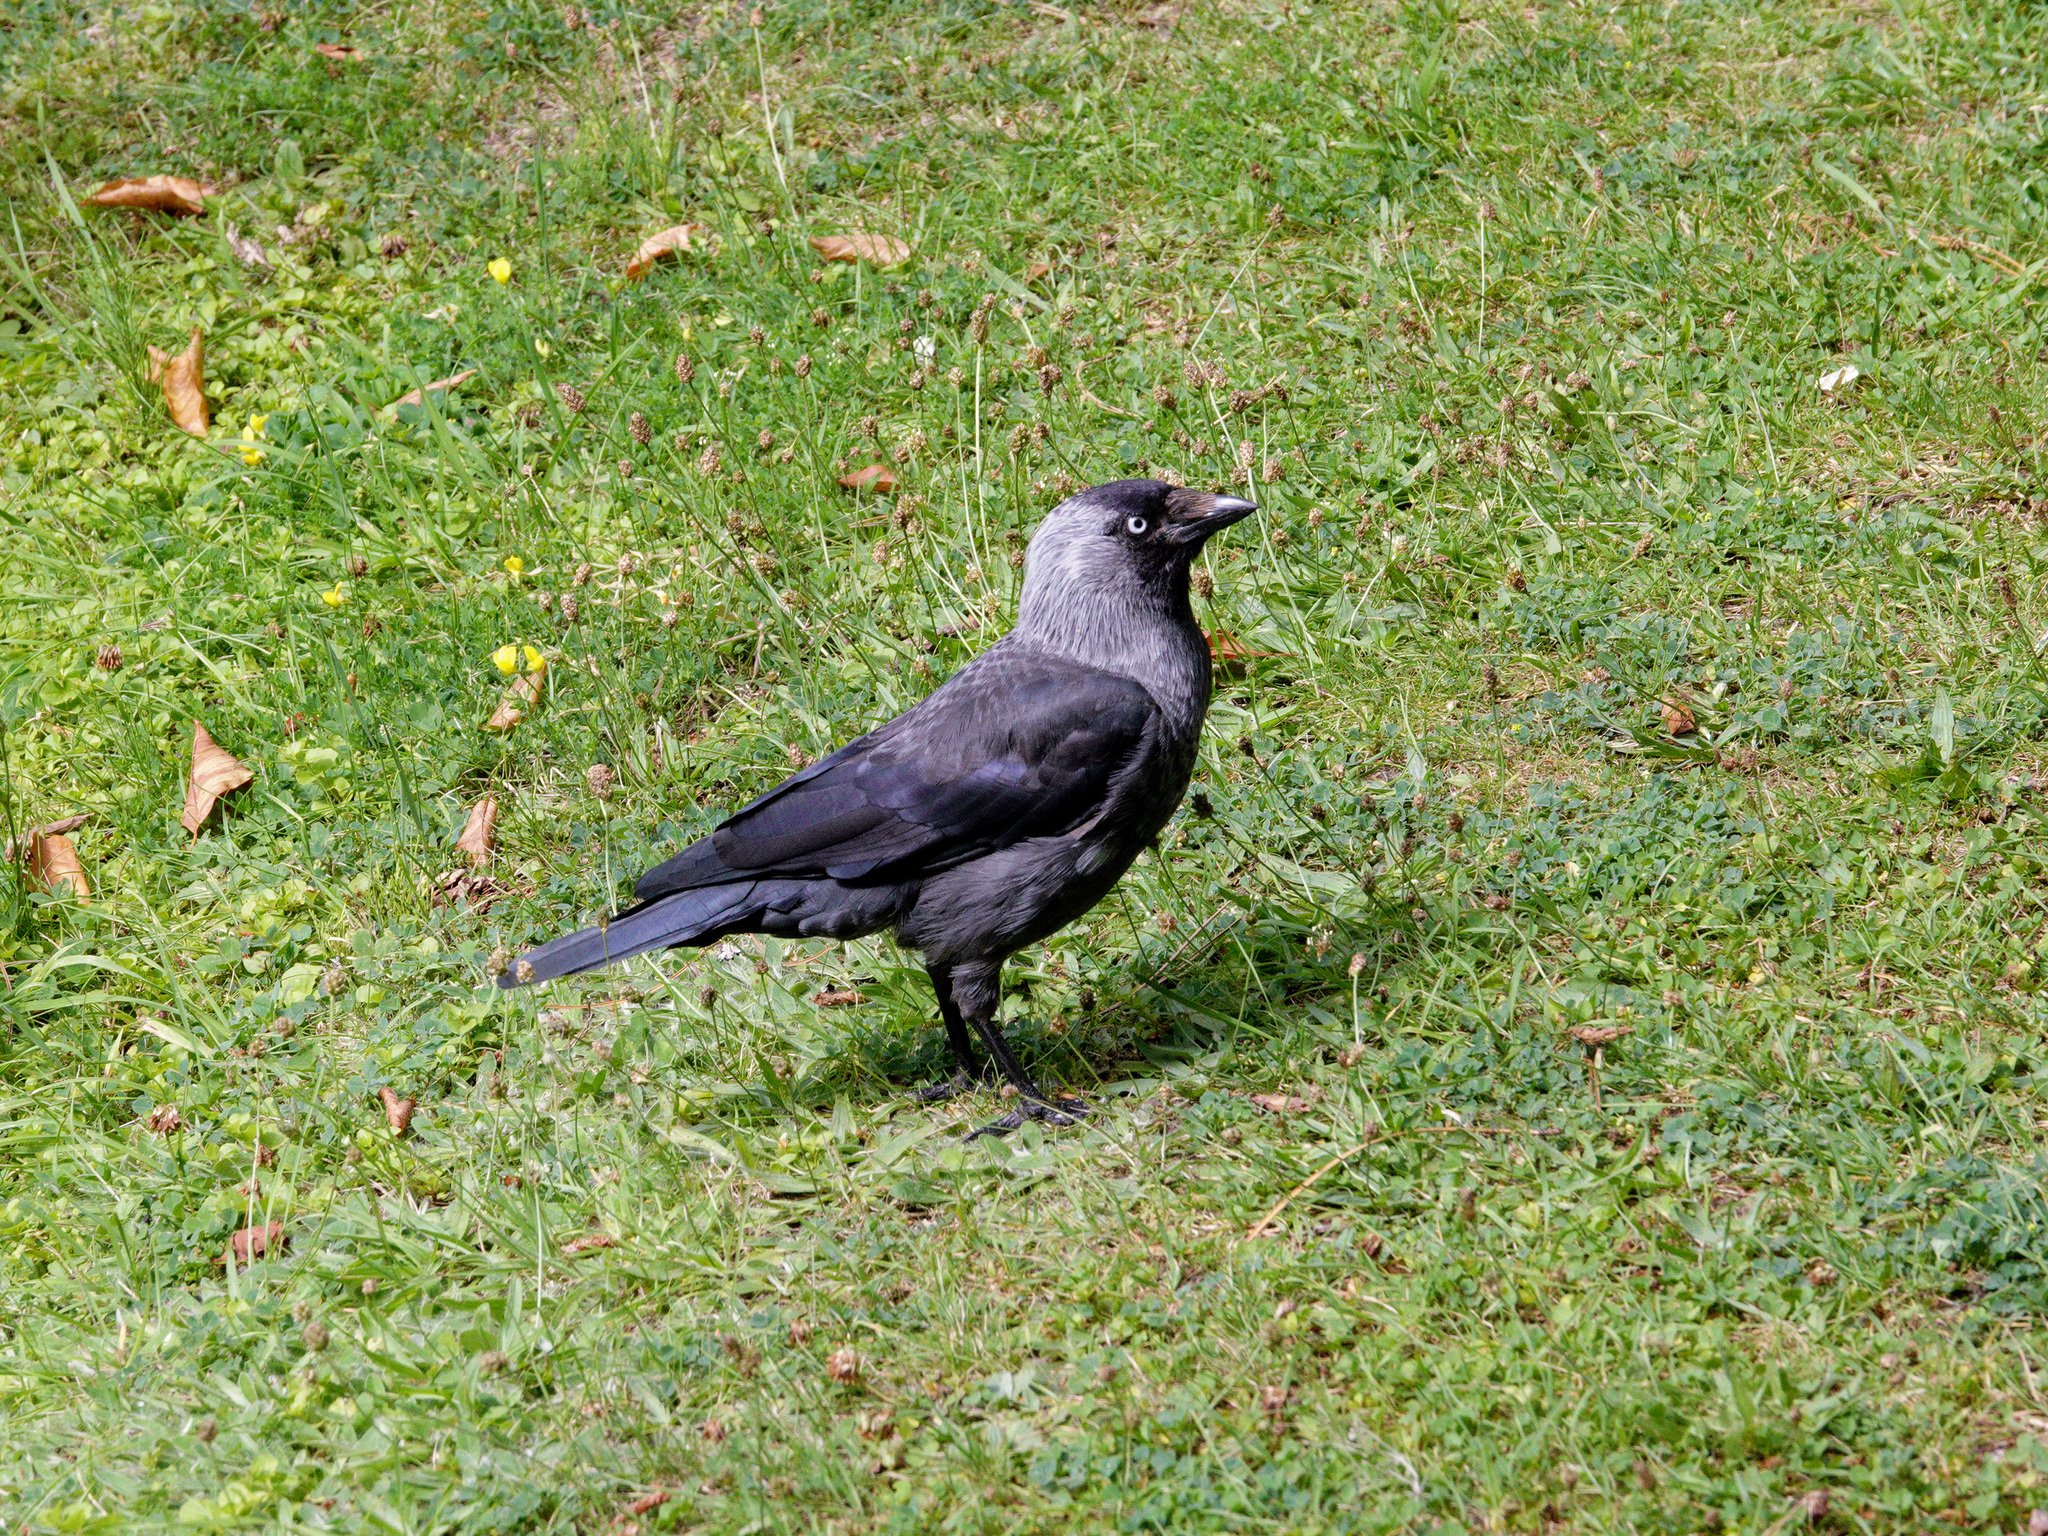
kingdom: Animalia
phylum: Chordata
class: Aves
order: Passeriformes
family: Corvidae
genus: Coloeus
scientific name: Coloeus monedula
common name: Western jackdaw
